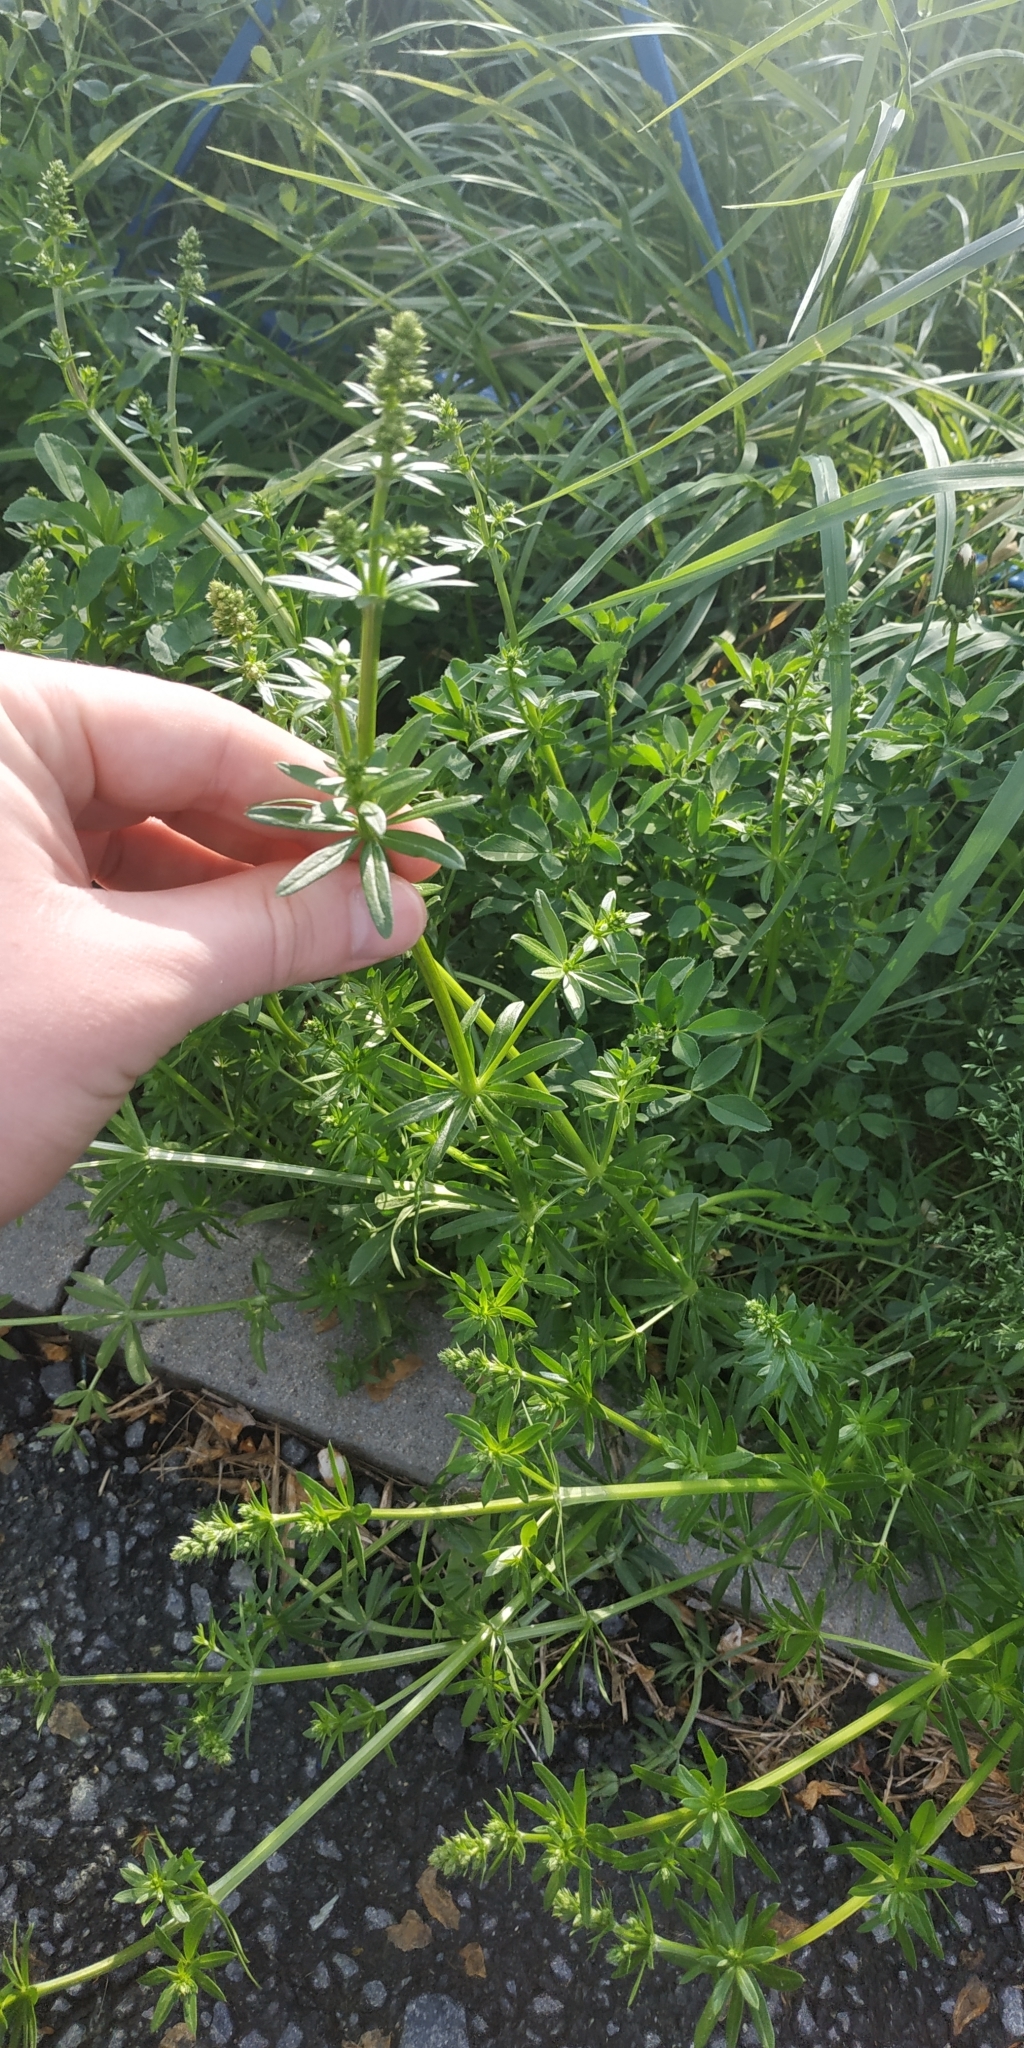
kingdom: Plantae
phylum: Tracheophyta
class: Magnoliopsida
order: Gentianales
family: Rubiaceae
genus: Galium
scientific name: Galium mollugo
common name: Hedge bedstraw
